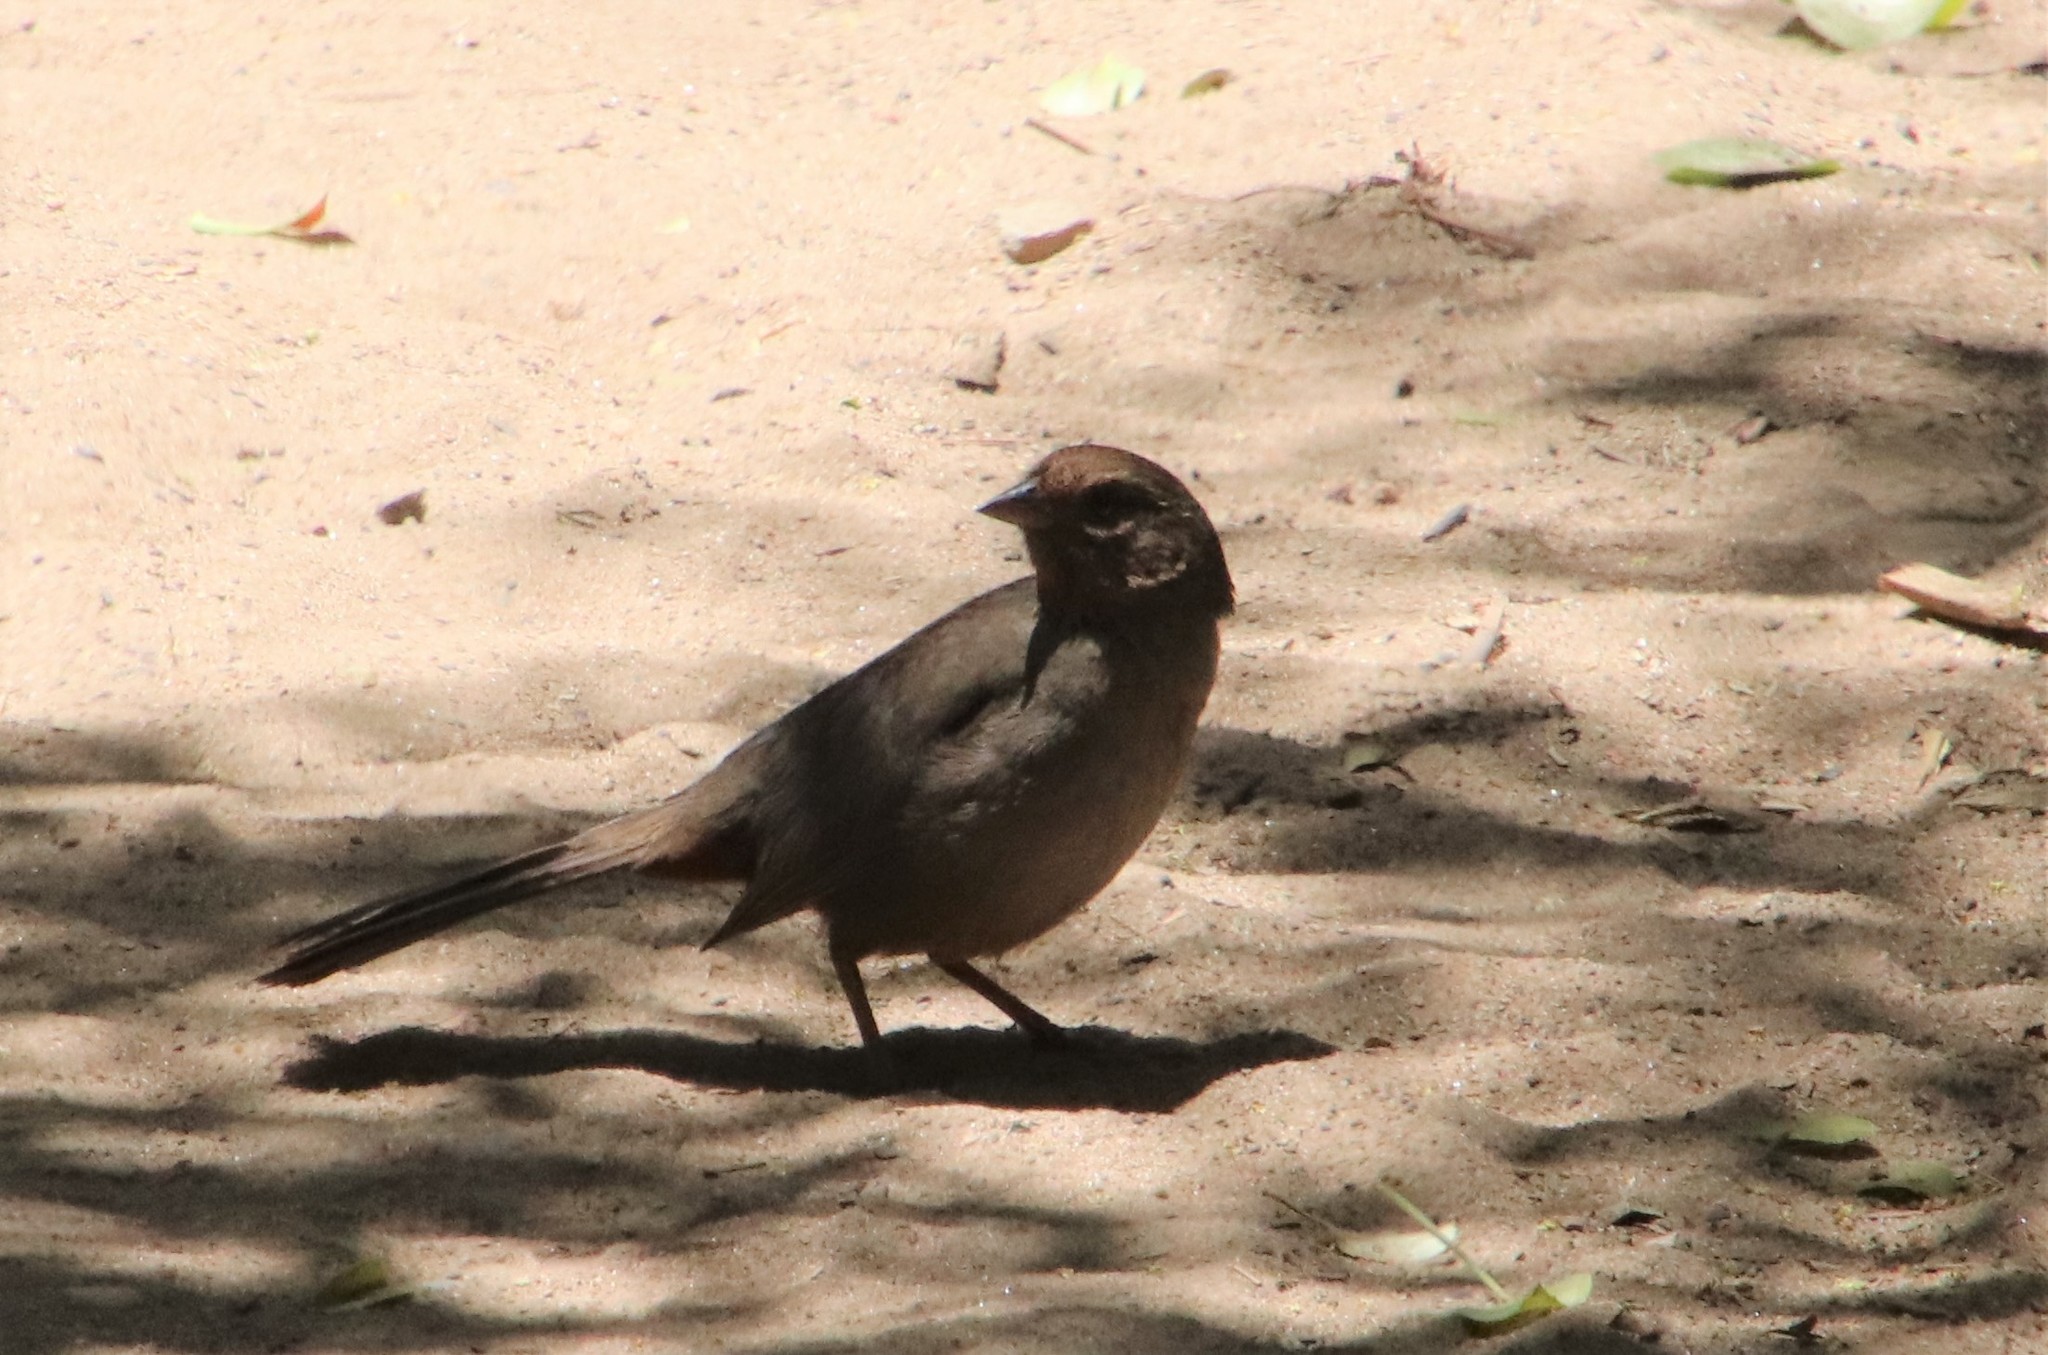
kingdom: Animalia
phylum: Chordata
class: Aves
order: Passeriformes
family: Passerellidae
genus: Melozone
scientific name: Melozone crissalis
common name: California towhee
